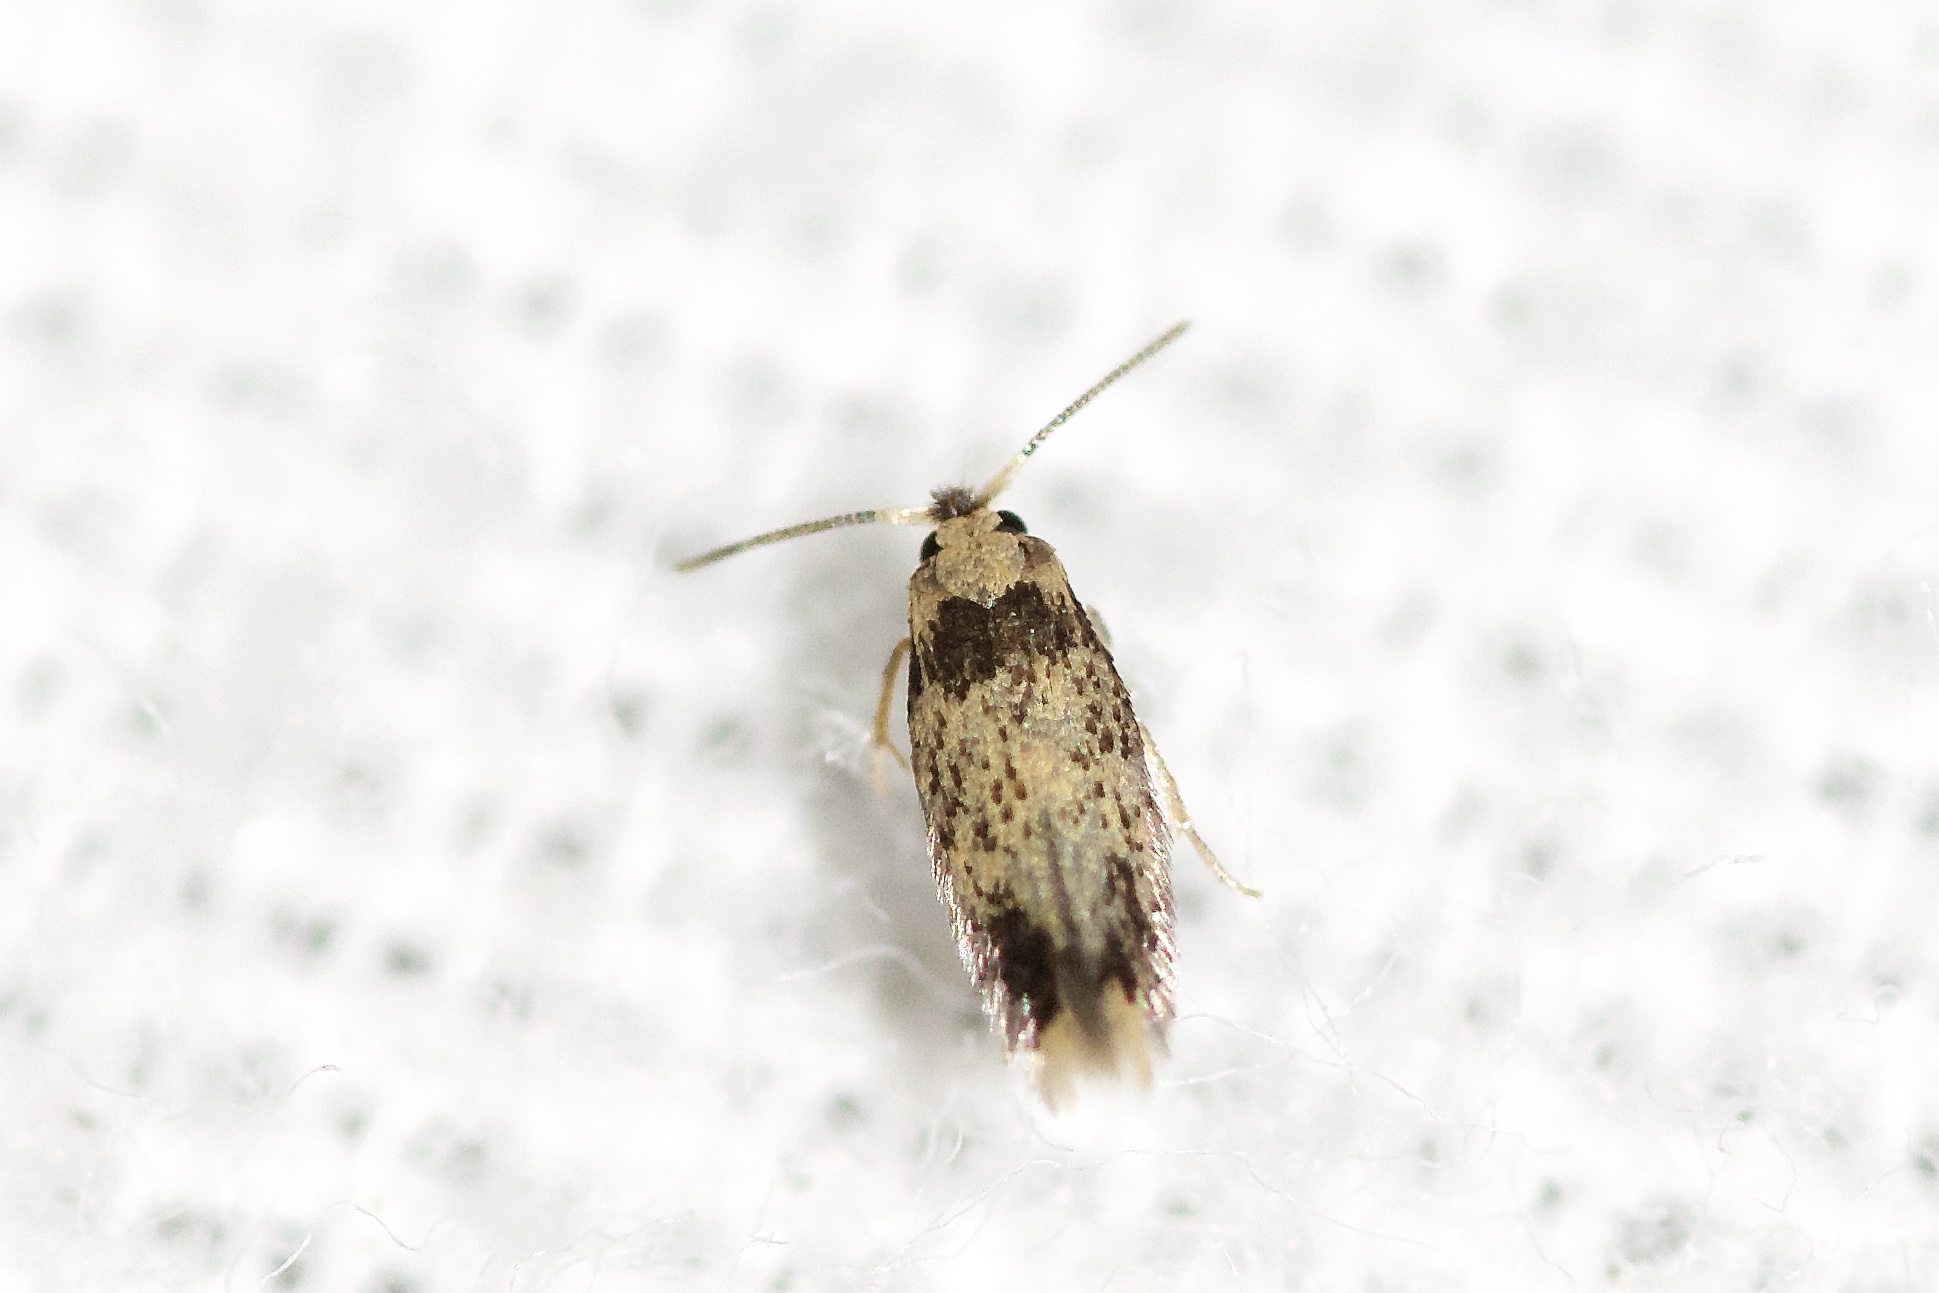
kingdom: Animalia
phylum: Arthropoda
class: Insecta
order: Lepidoptera
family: Nepticulidae
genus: Stigmella
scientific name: Stigmella macrocarpae
